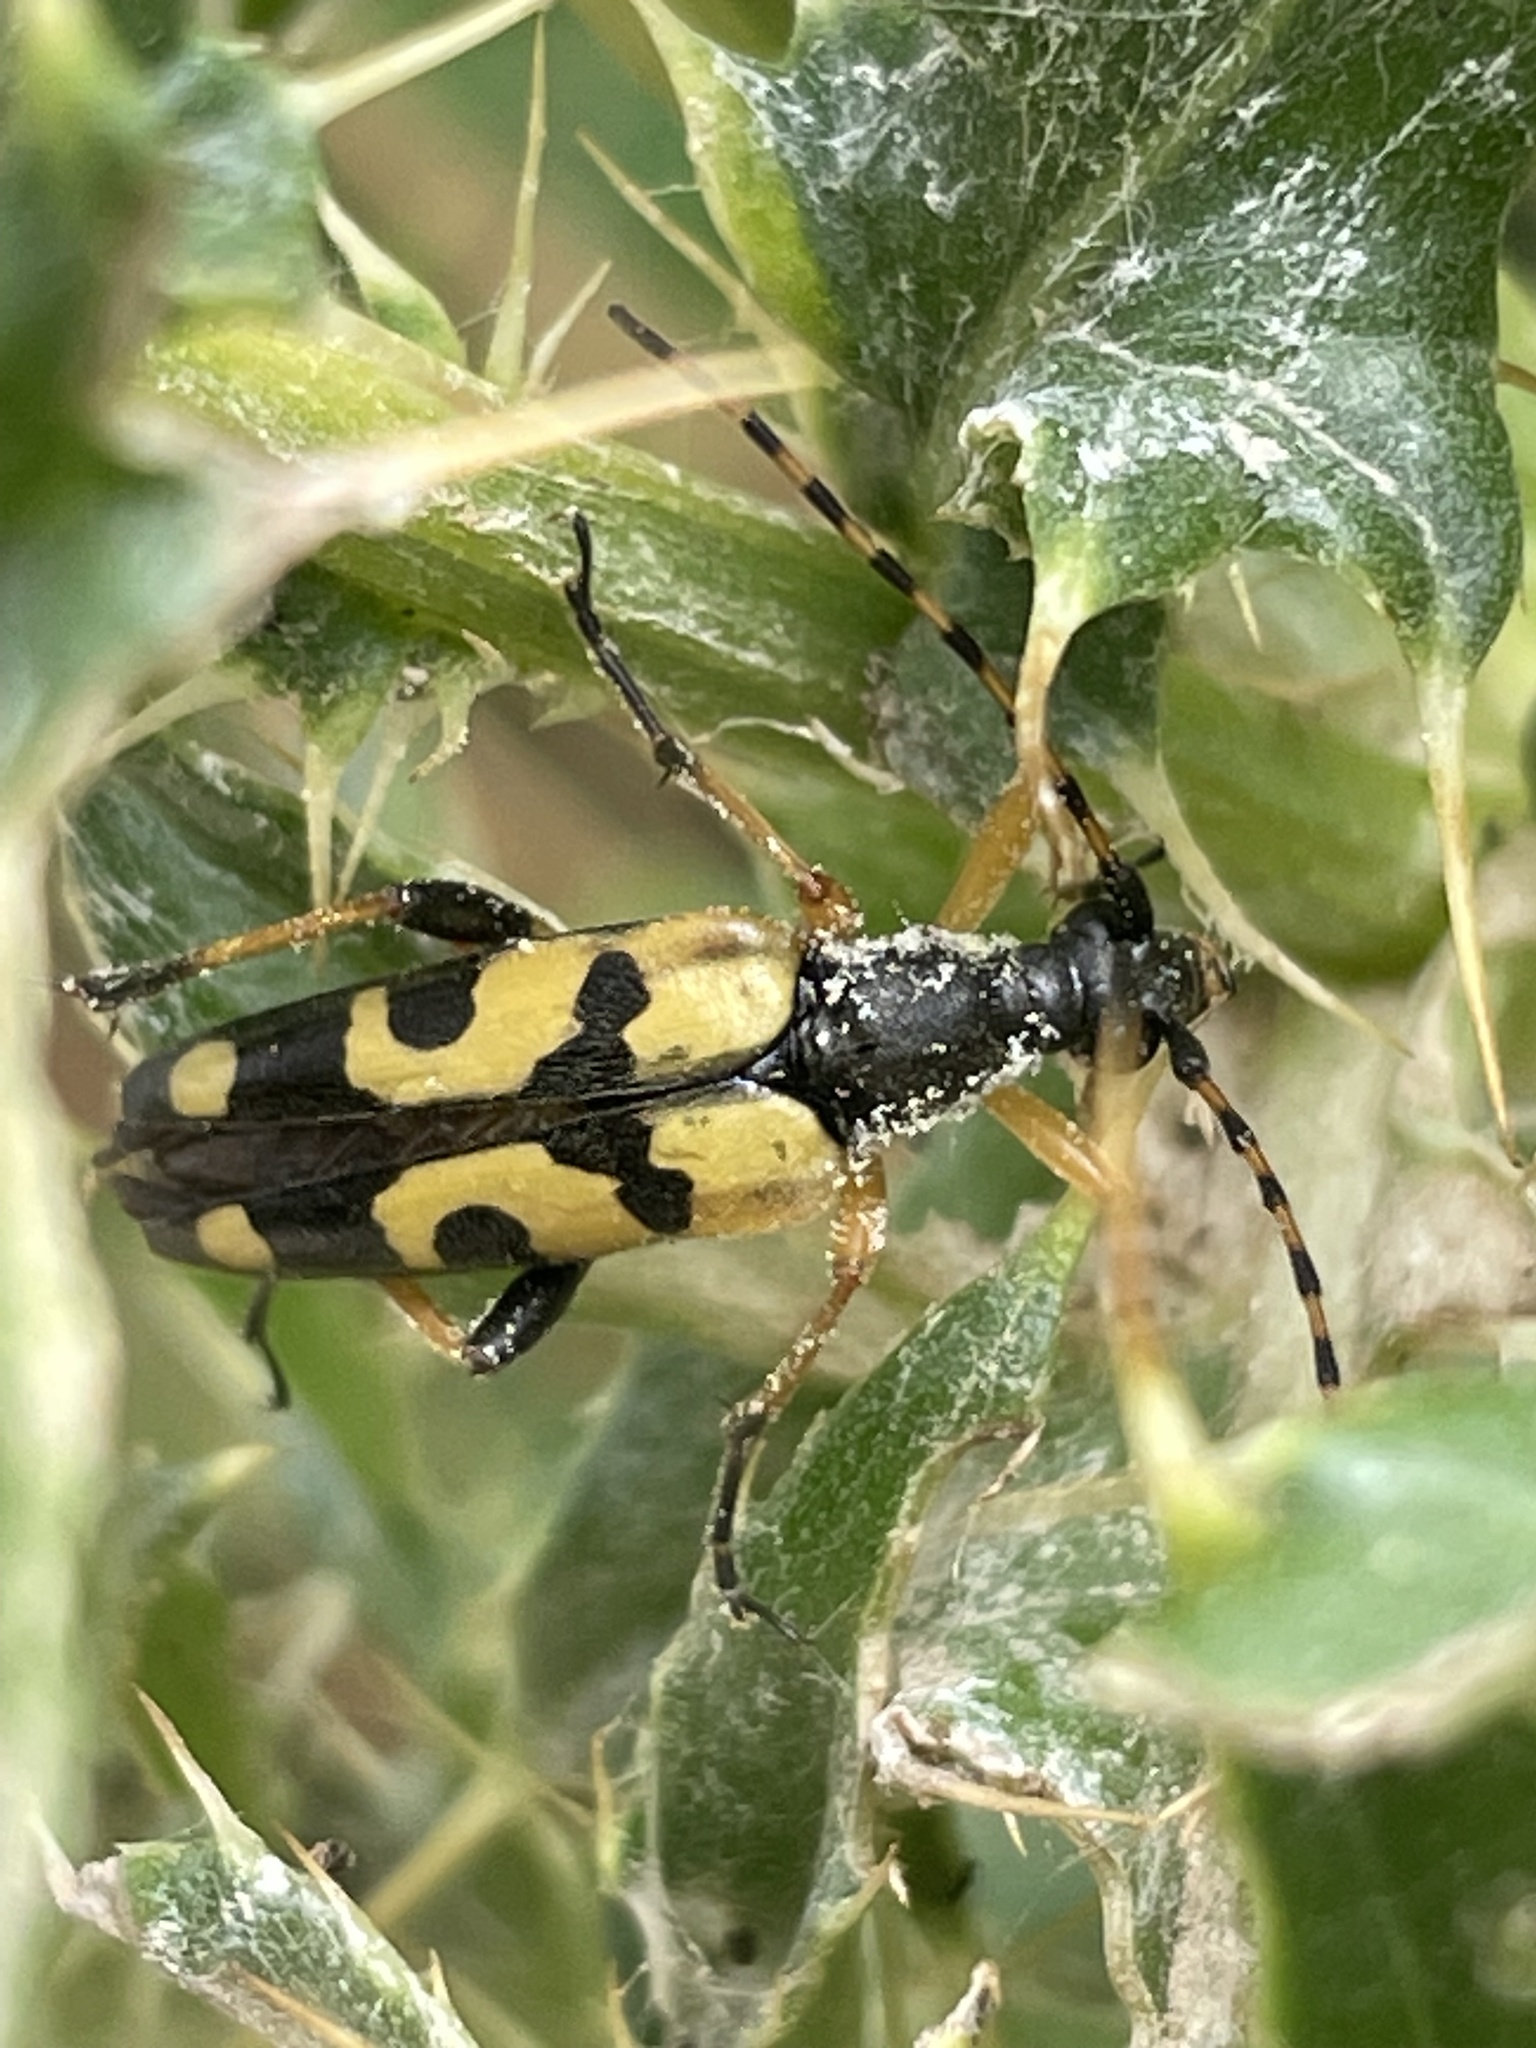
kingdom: Animalia
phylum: Arthropoda
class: Insecta
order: Coleoptera
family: Cerambycidae
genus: Rutpela
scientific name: Rutpela maculata
